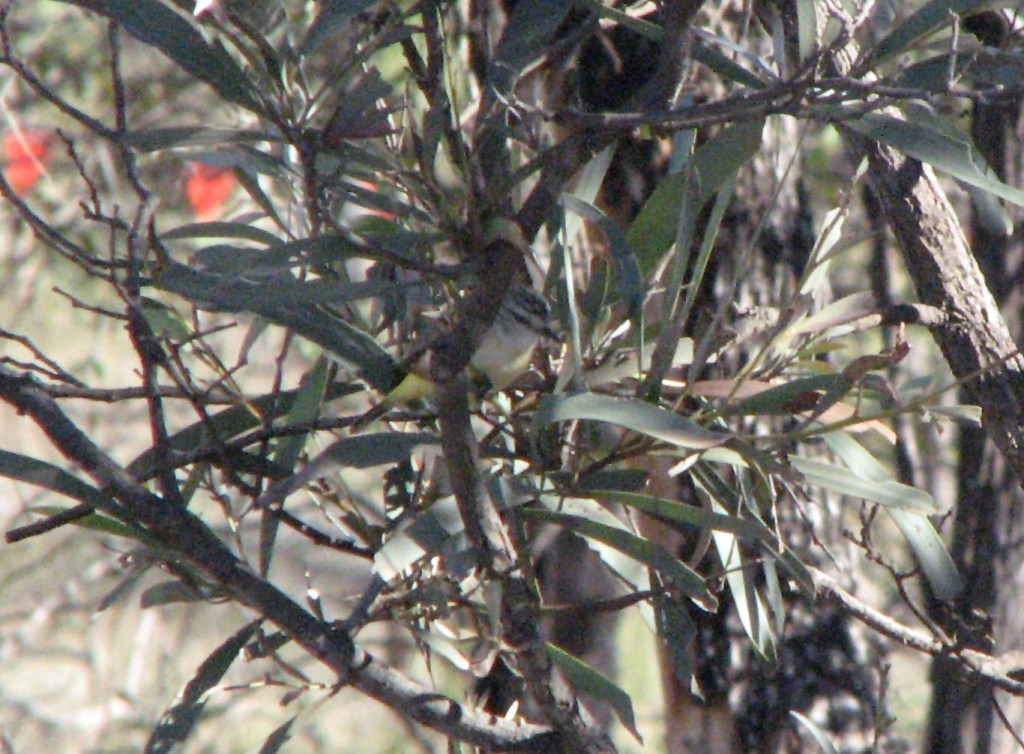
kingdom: Animalia
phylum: Chordata
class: Aves
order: Passeriformes
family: Acanthizidae
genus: Acanthiza
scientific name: Acanthiza chrysorrhoa
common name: Yellow-rumped thornbill
